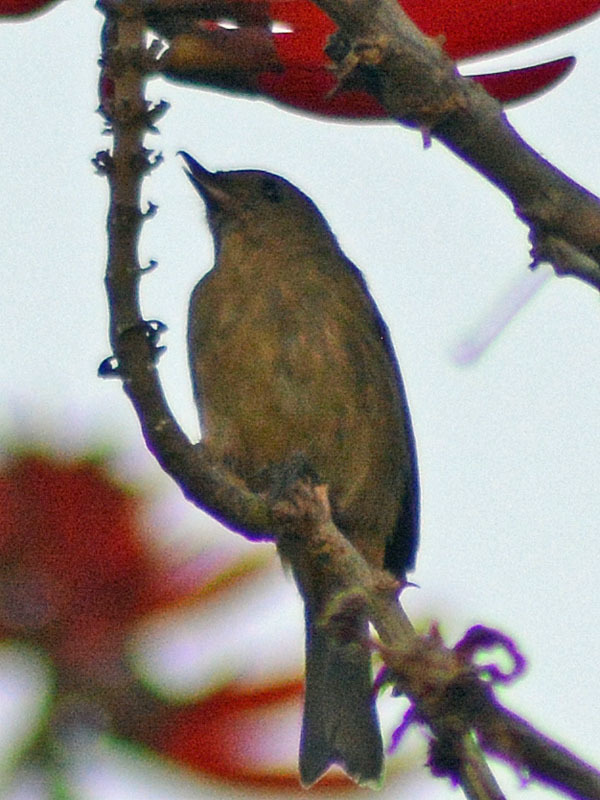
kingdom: Animalia
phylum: Chordata
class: Aves
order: Passeriformes
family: Thraupidae
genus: Diglossa
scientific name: Diglossa baritula
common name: Cinnamon-bellied flowerpiercer
